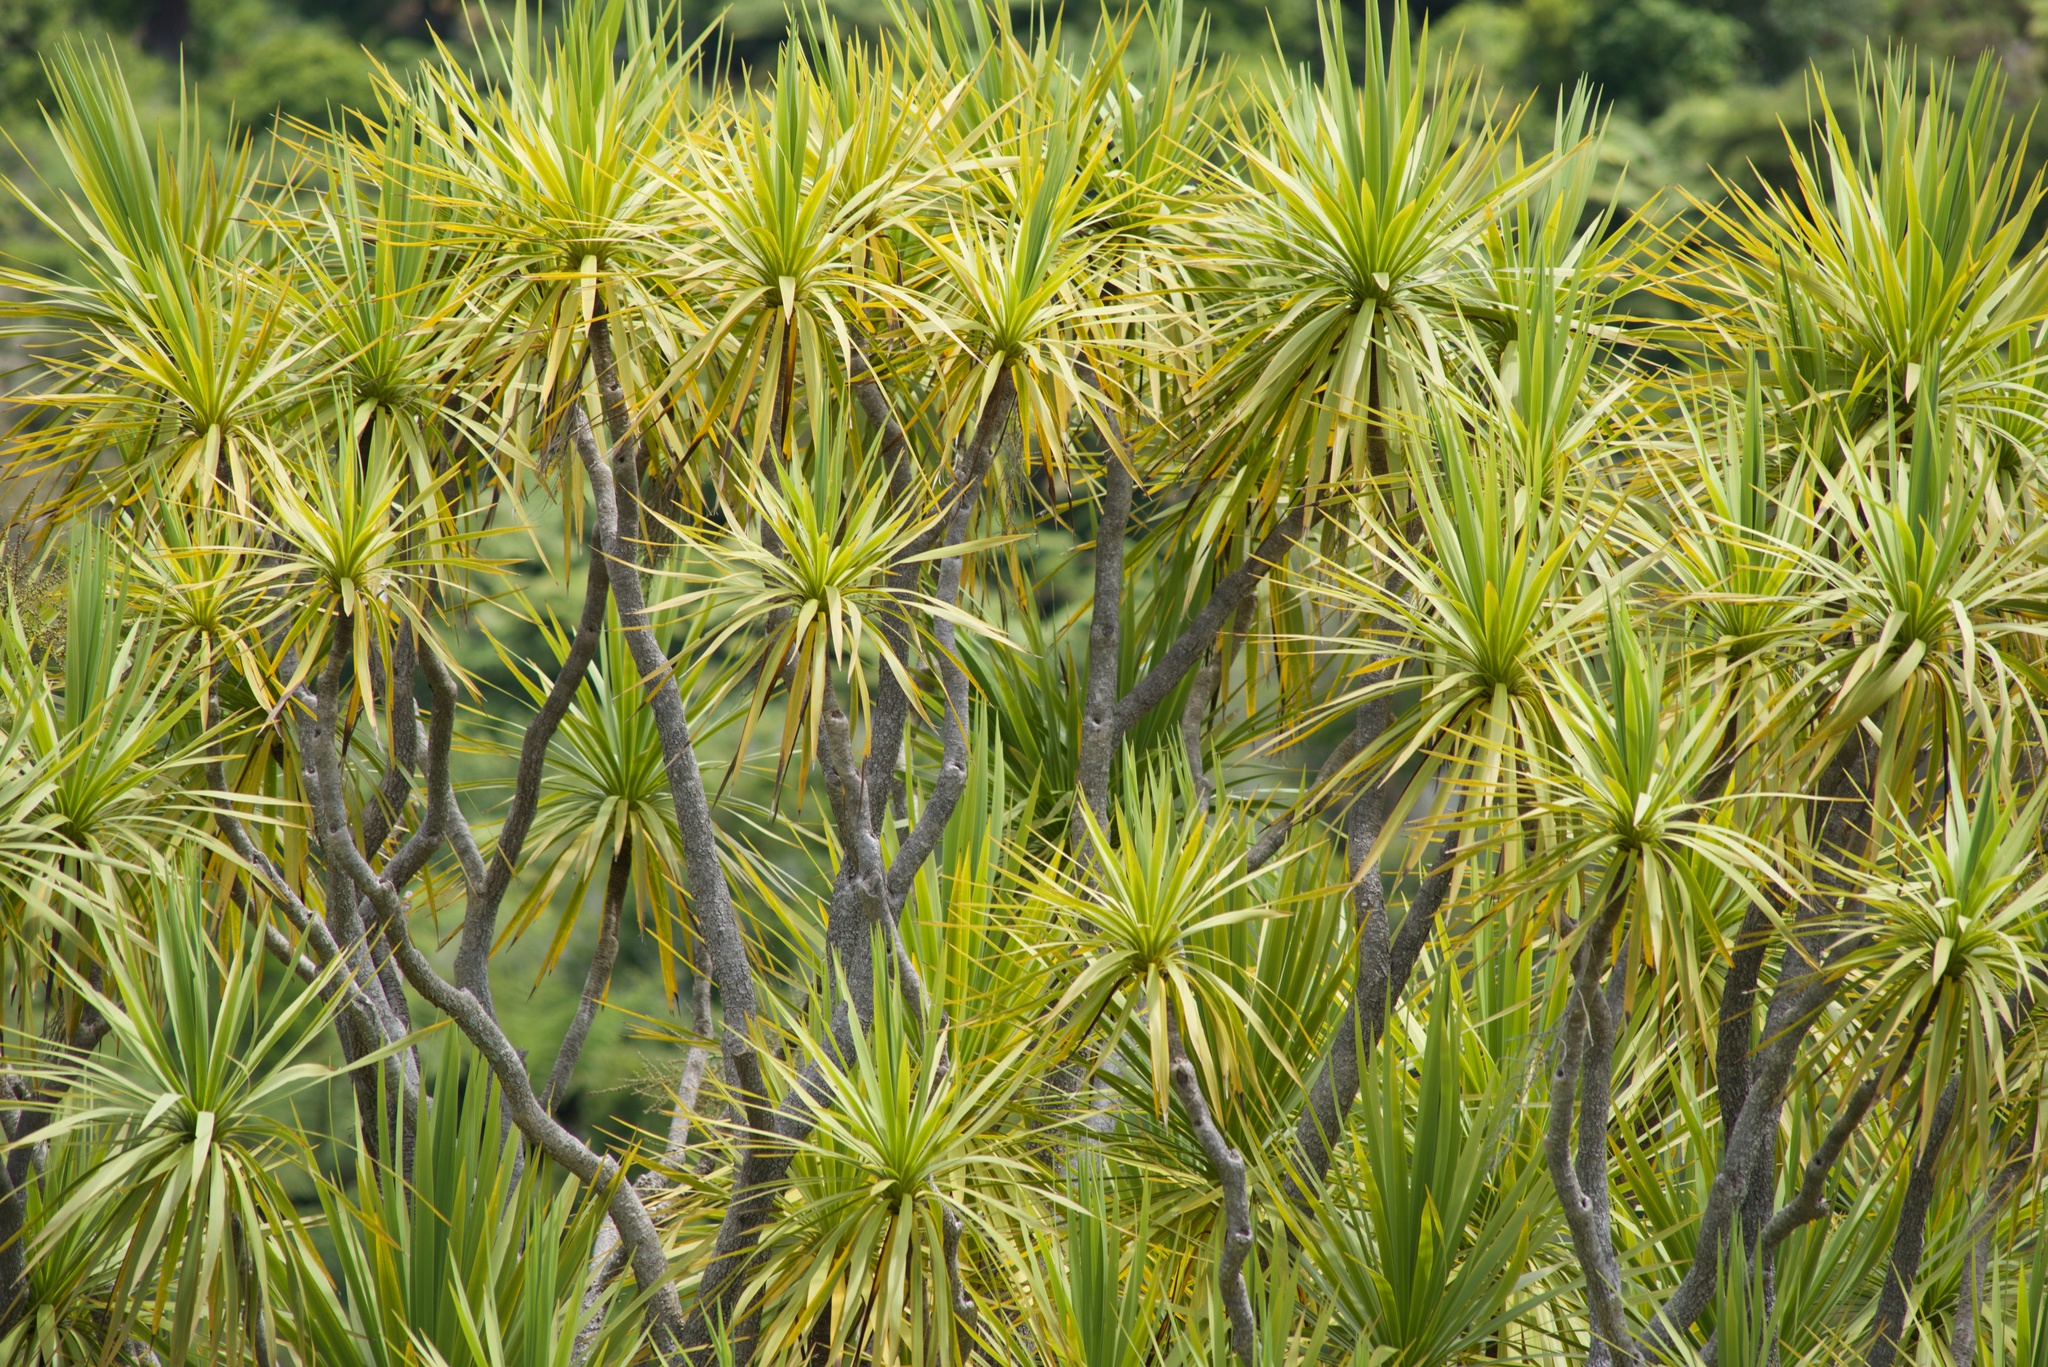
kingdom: Plantae
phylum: Tracheophyta
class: Liliopsida
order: Asparagales
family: Asparagaceae
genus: Cordyline
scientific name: Cordyline australis
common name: Cabbage-palm
